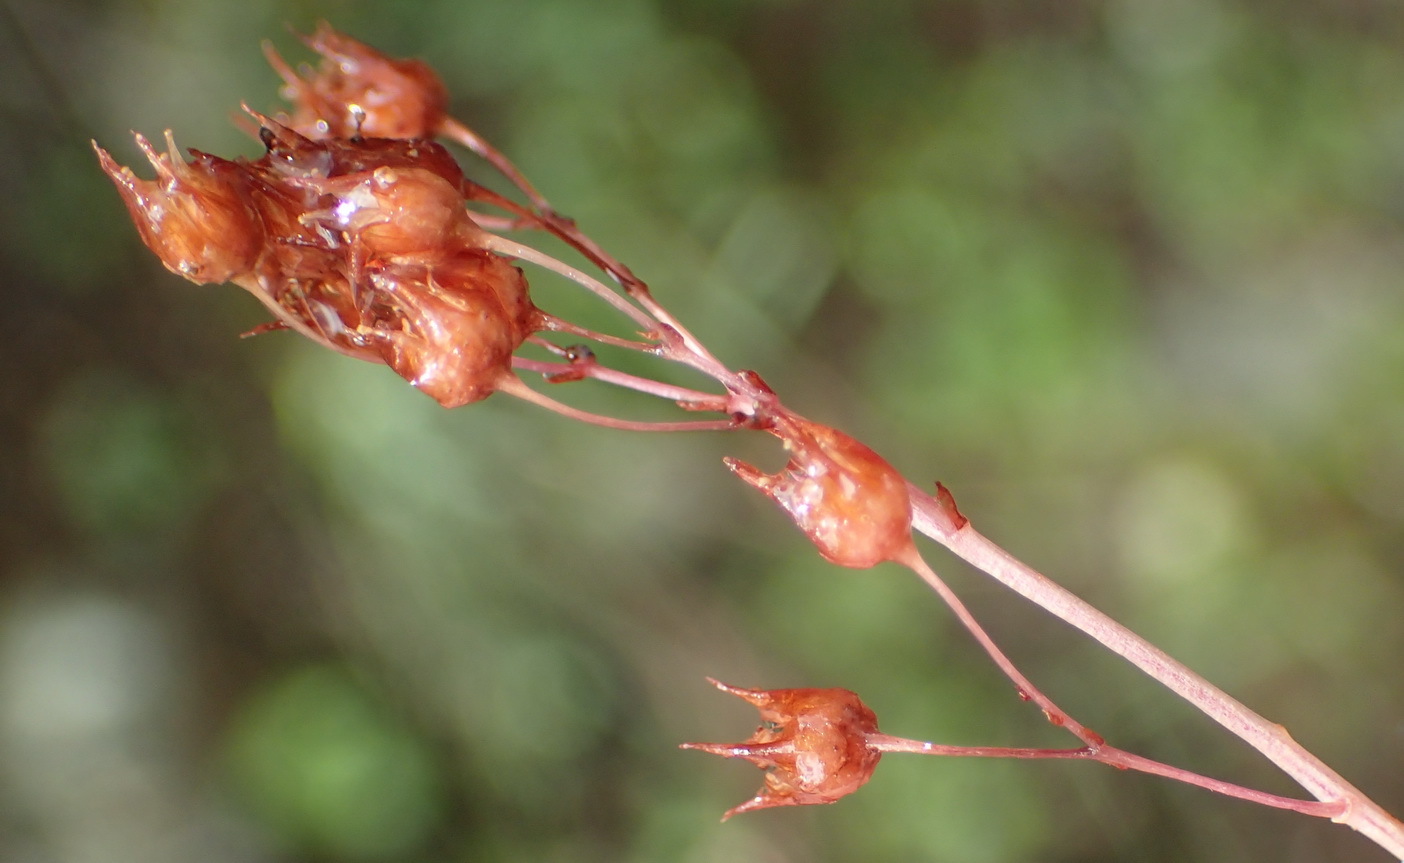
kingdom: Plantae
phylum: Tracheophyta
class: Magnoliopsida
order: Saxifragales
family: Crassulaceae
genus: Crassula
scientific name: Crassula umbella
